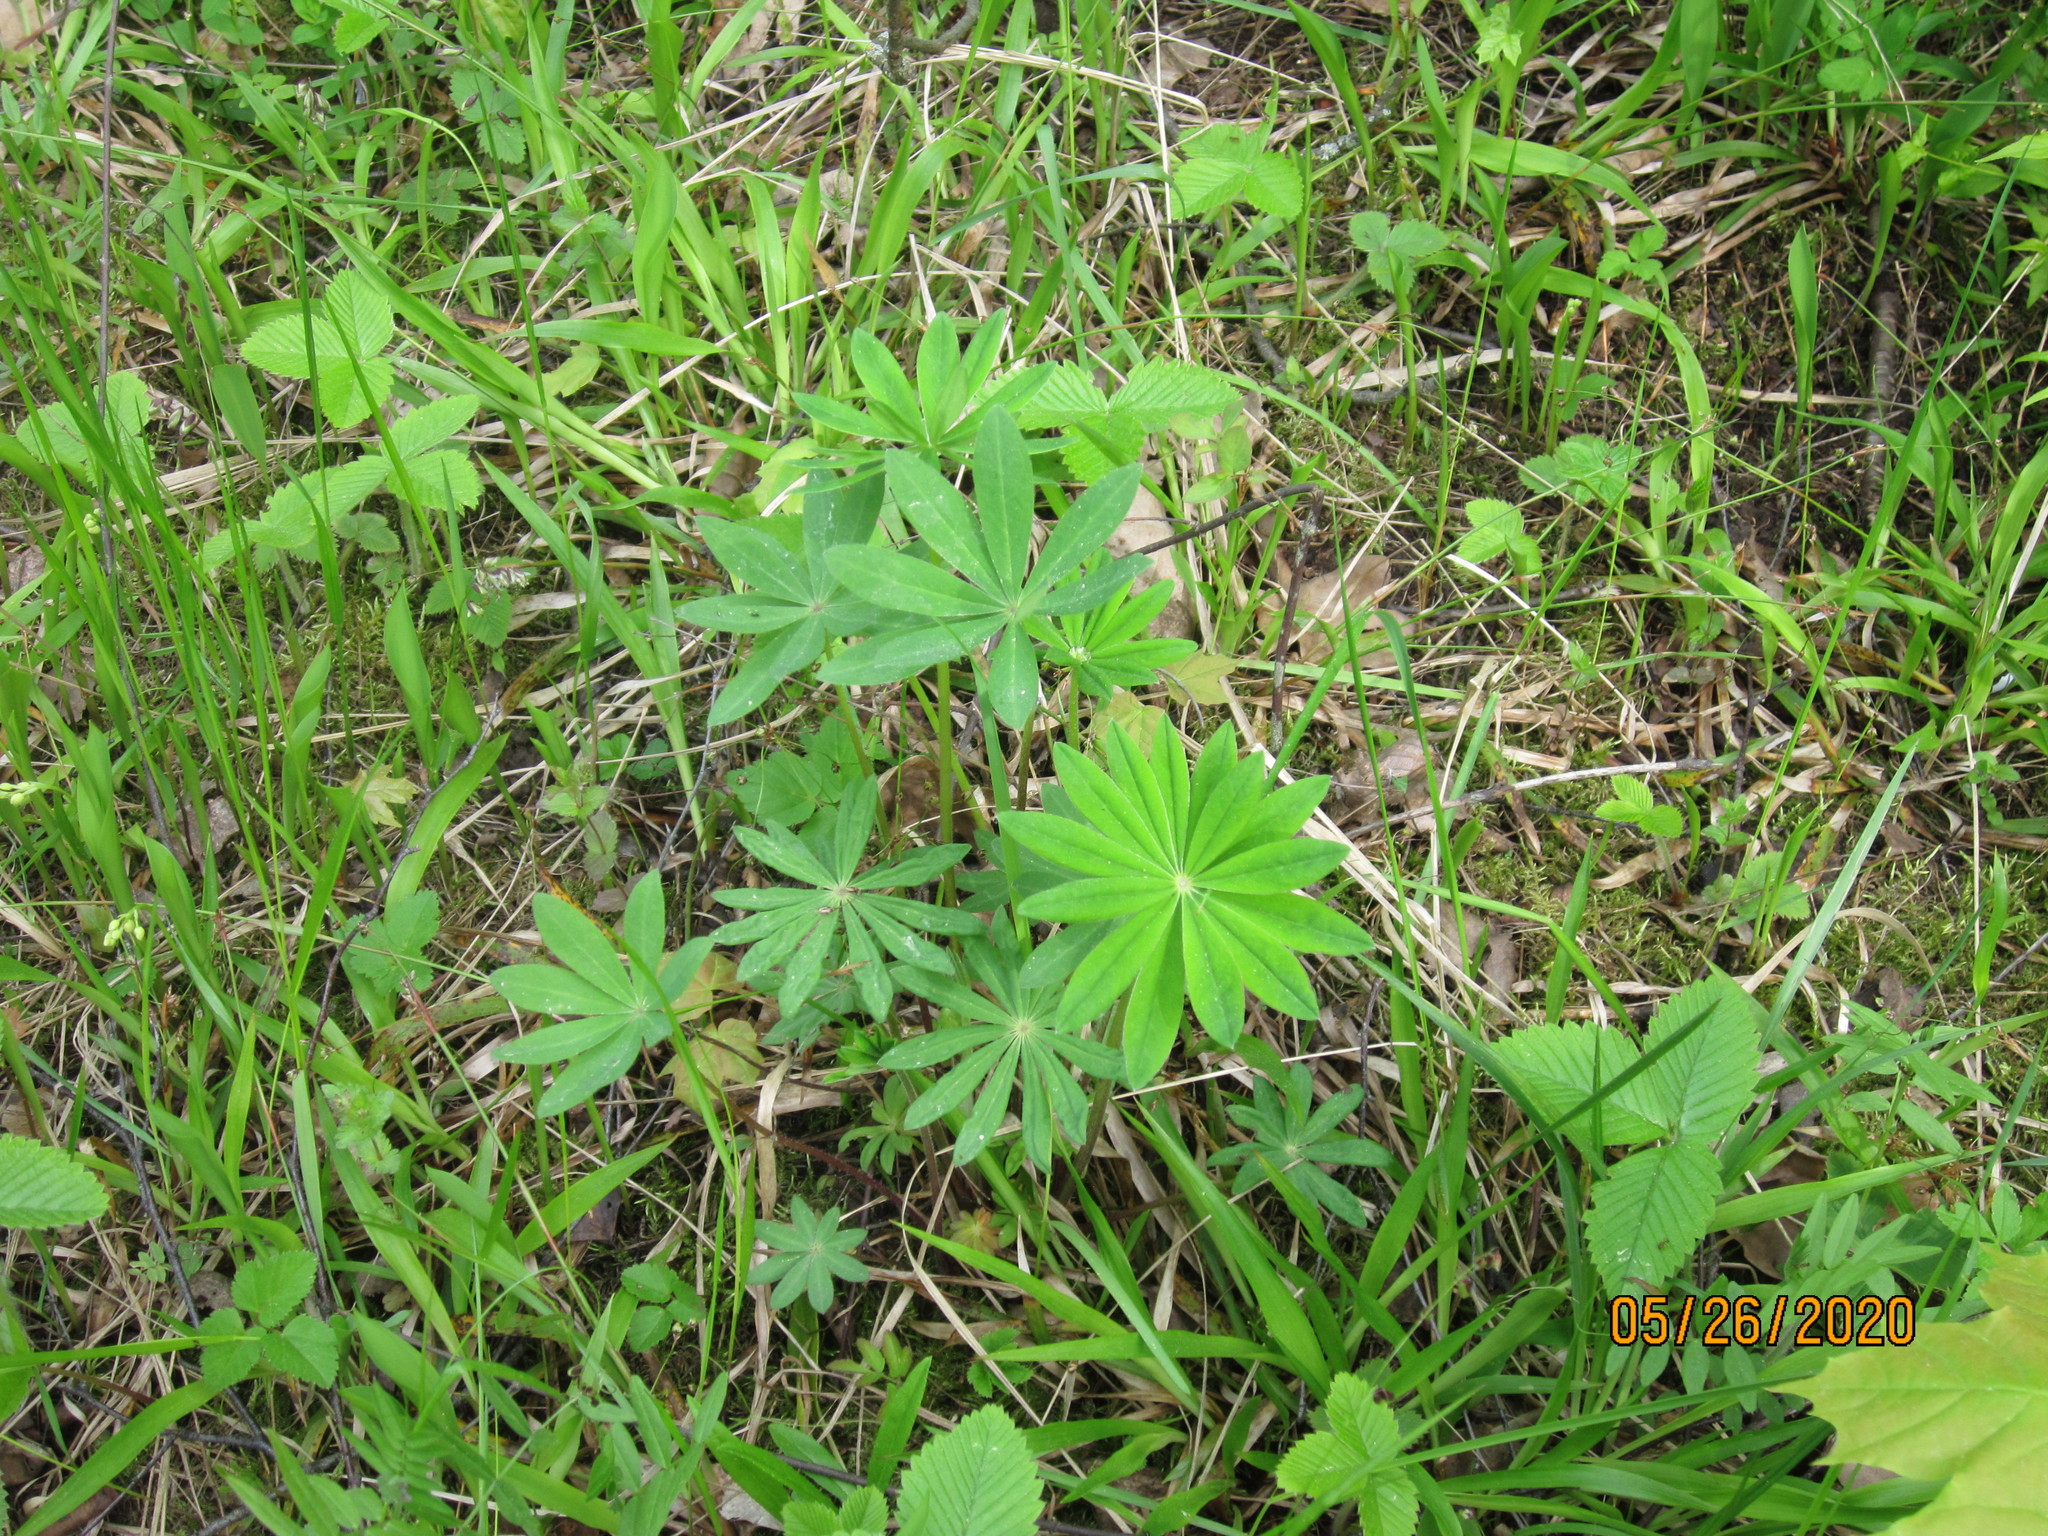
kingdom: Plantae
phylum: Tracheophyta
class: Magnoliopsida
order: Fabales
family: Fabaceae
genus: Lupinus
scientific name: Lupinus polyphyllus
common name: Garden lupin
